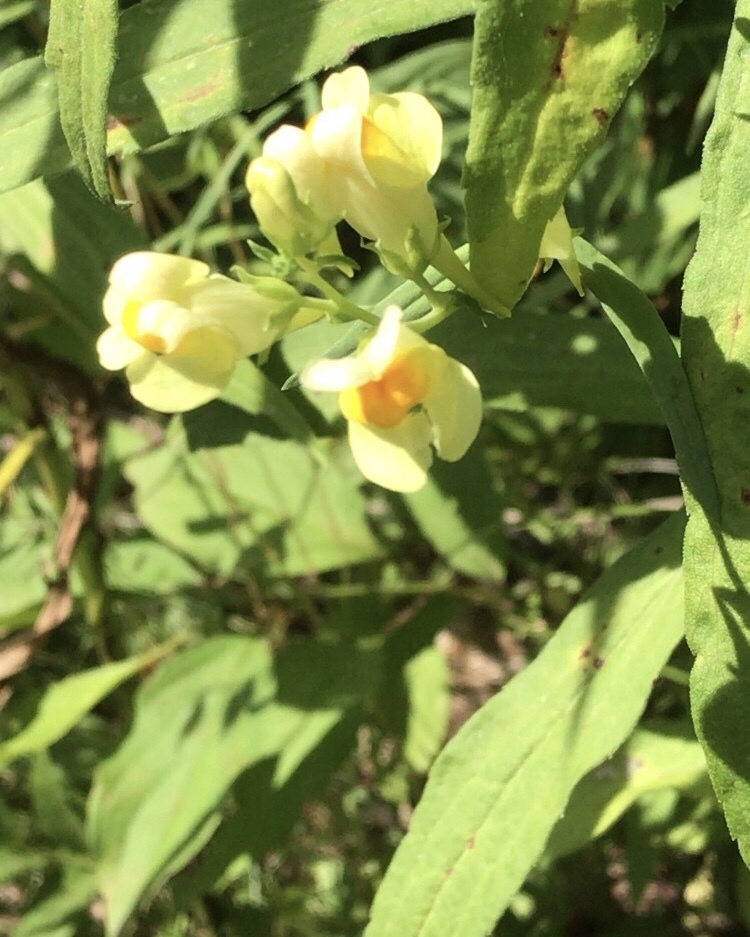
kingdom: Plantae
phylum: Tracheophyta
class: Magnoliopsida
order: Lamiales
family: Plantaginaceae
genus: Linaria
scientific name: Linaria vulgaris
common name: Butter and eggs
